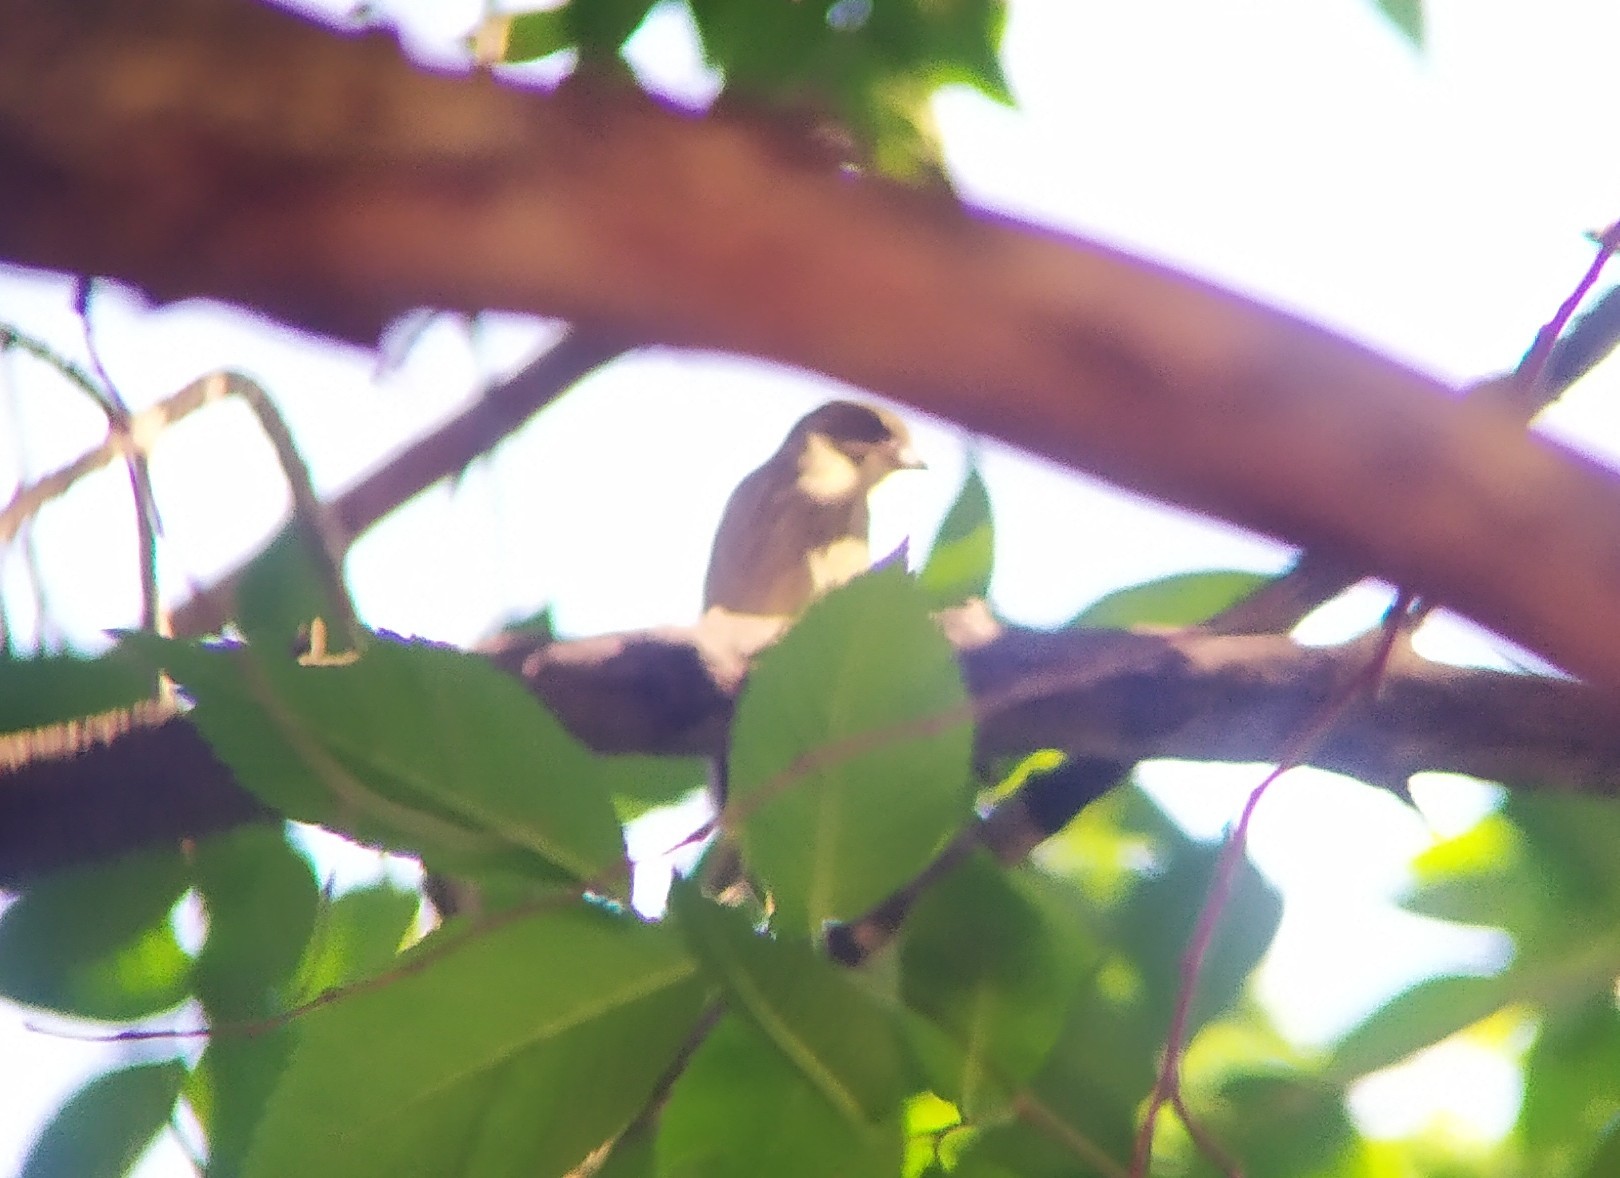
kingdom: Plantae
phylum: Tracheophyta
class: Liliopsida
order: Poales
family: Poaceae
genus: Chloris
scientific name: Chloris chloris
